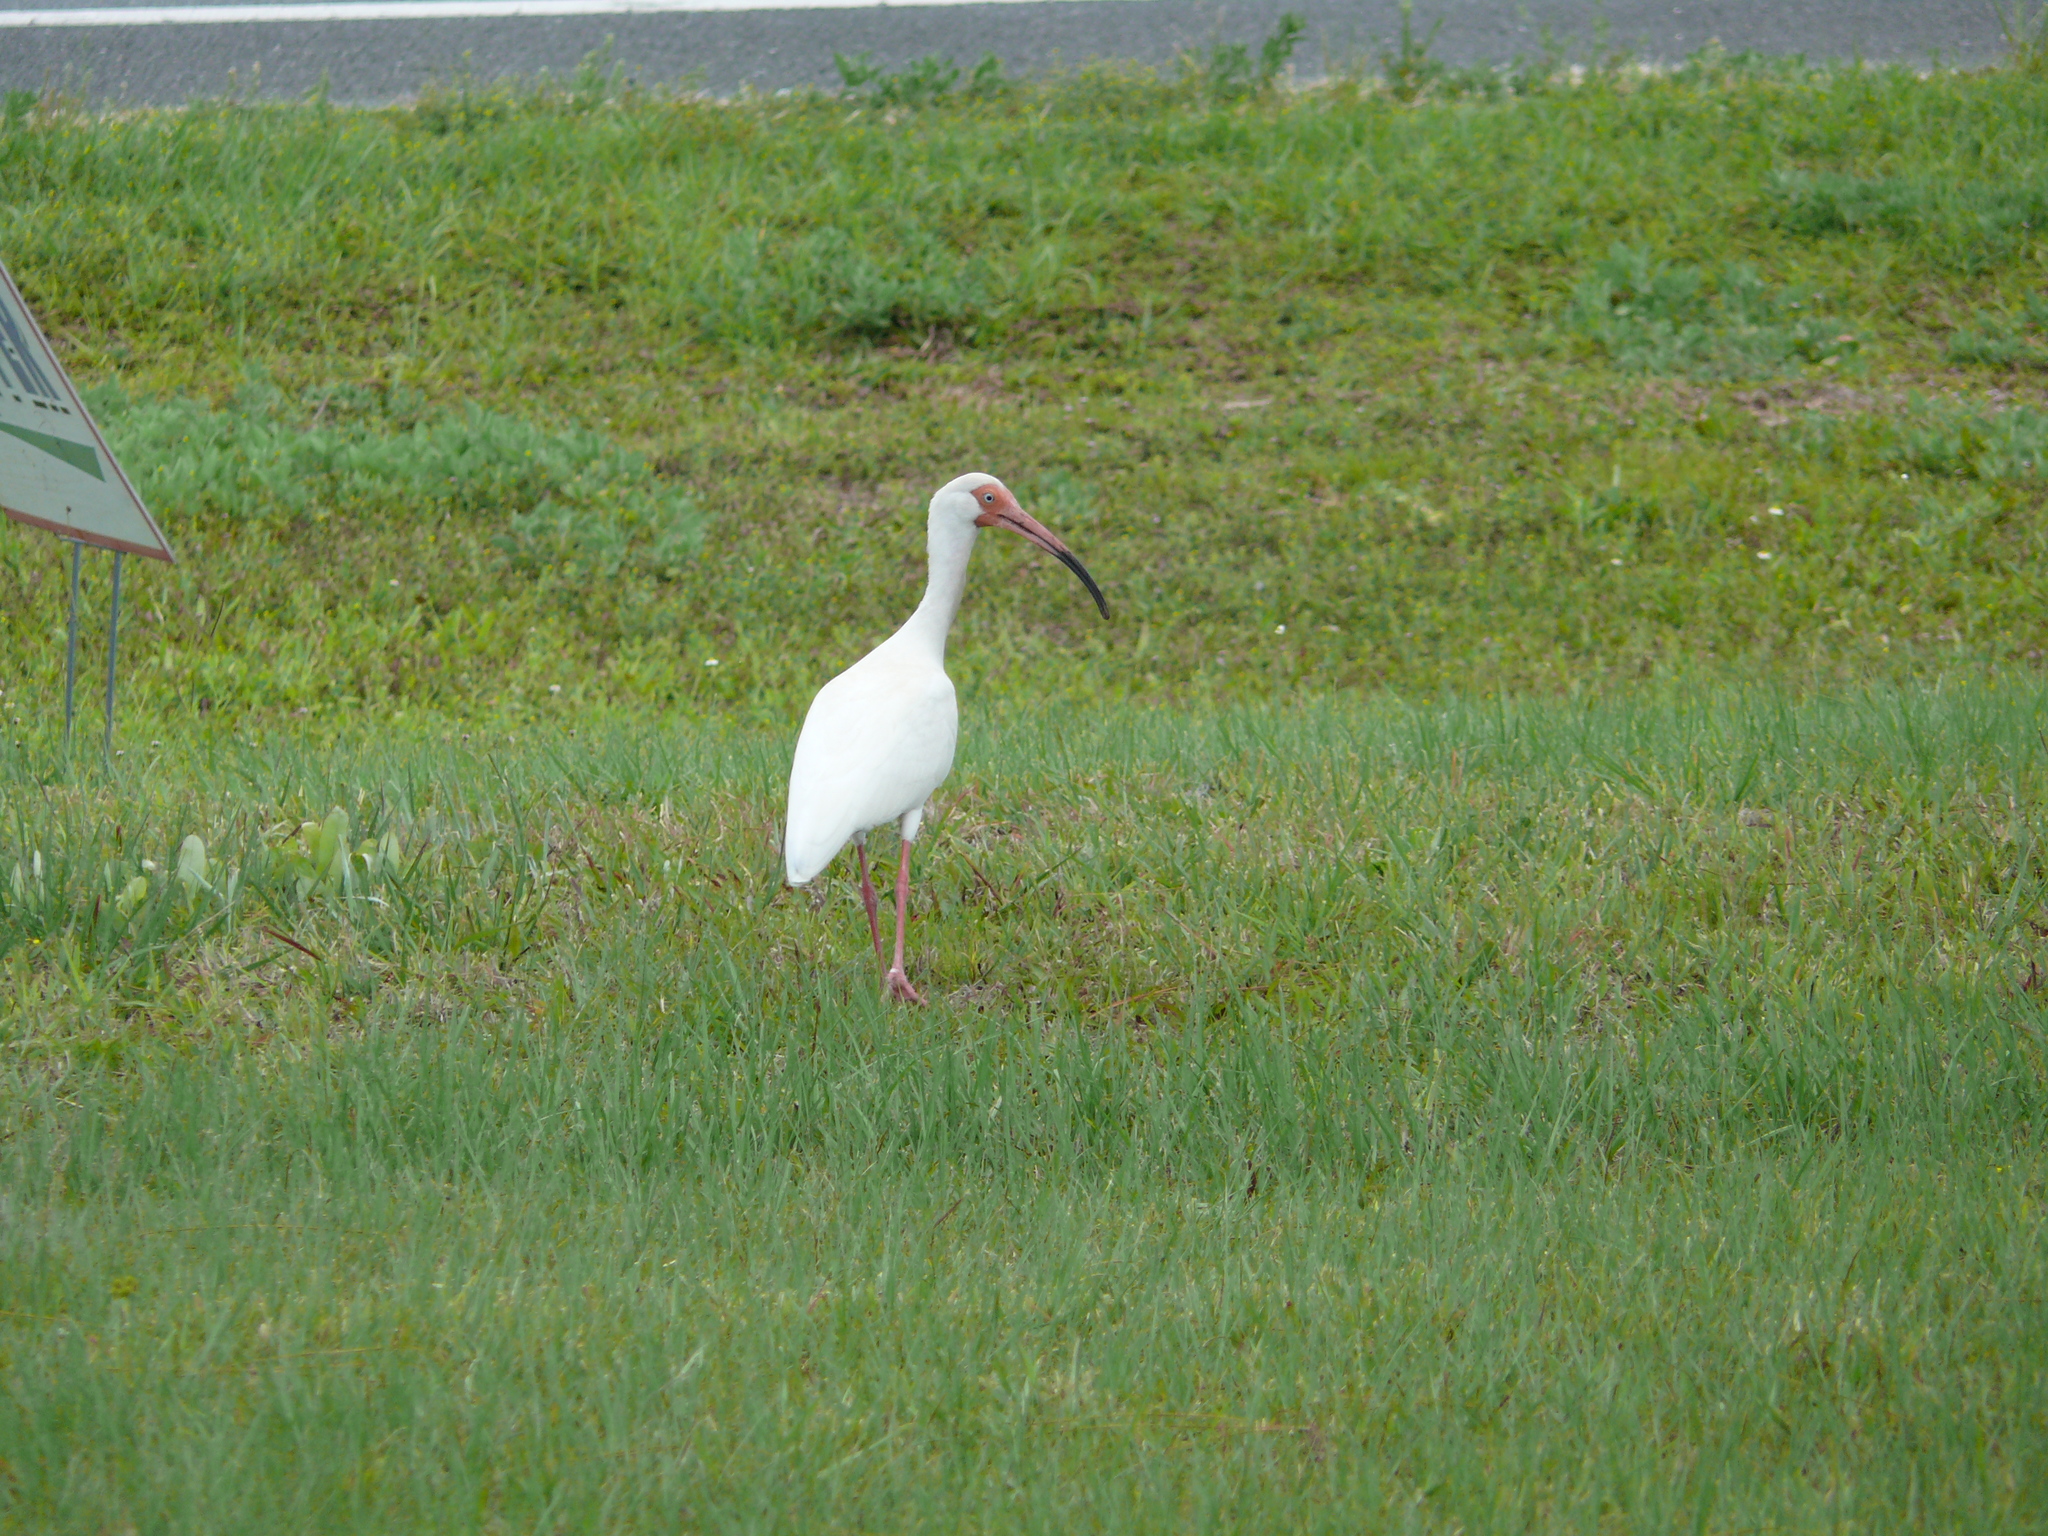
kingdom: Animalia
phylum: Chordata
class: Aves
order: Pelecaniformes
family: Threskiornithidae
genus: Eudocimus
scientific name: Eudocimus albus
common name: White ibis
